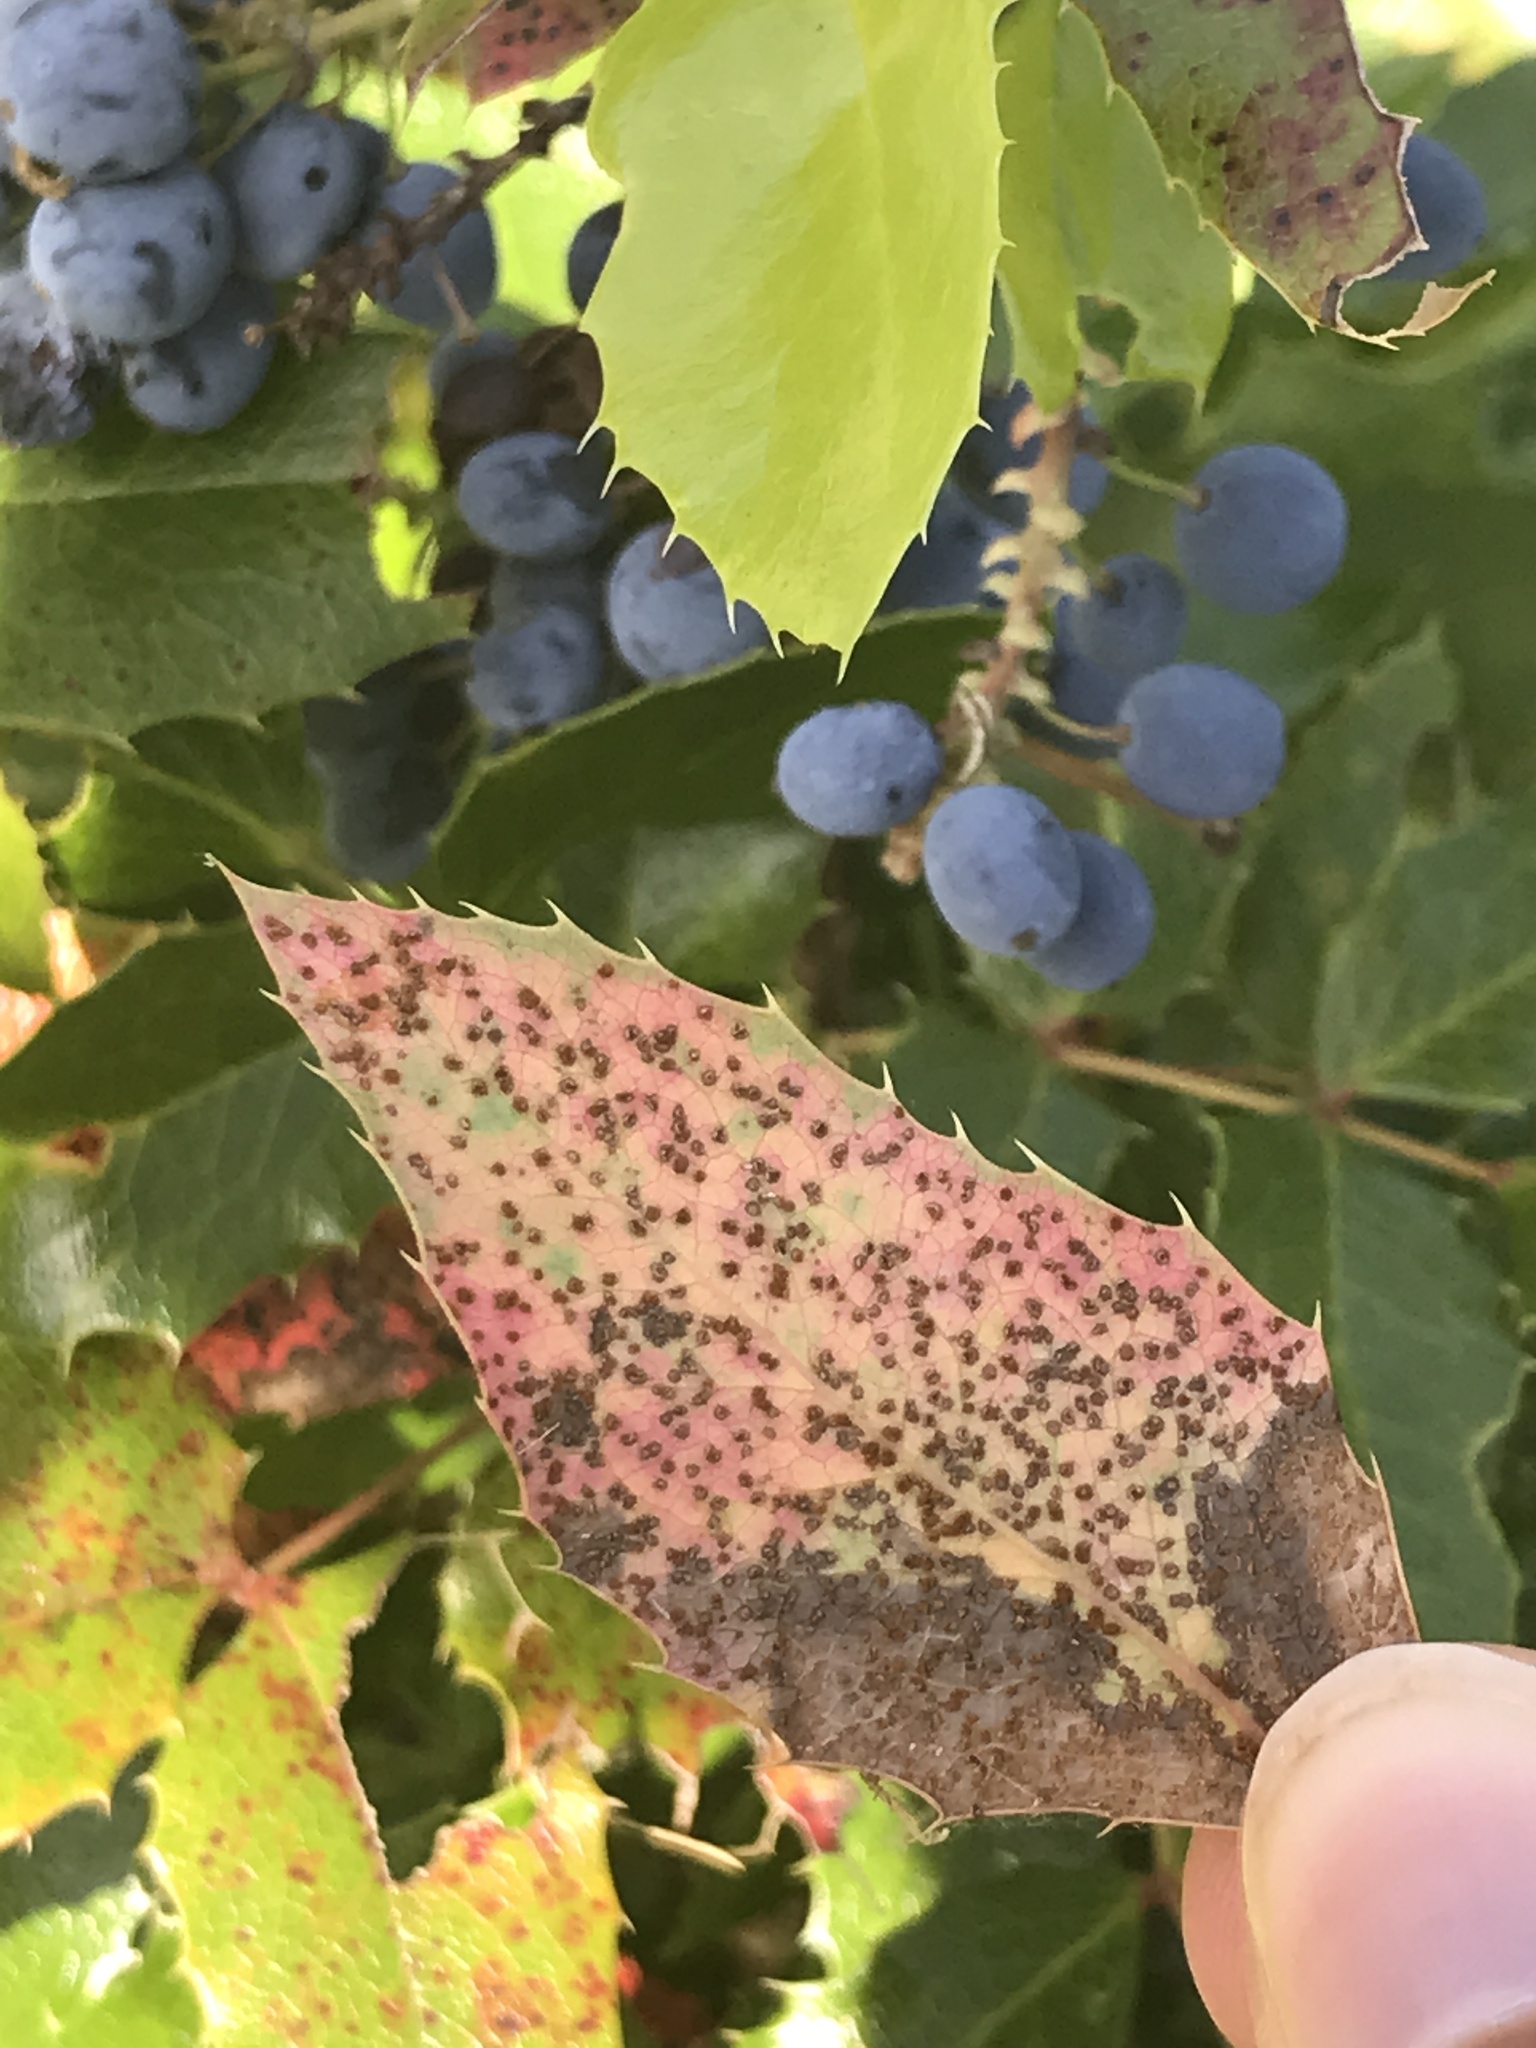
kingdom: Fungi
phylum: Basidiomycota
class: Pucciniomycetes
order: Pucciniales
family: Pucciniaceae
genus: Cumminsiella
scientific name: Cumminsiella mirabilissima
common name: Mahonia rust
